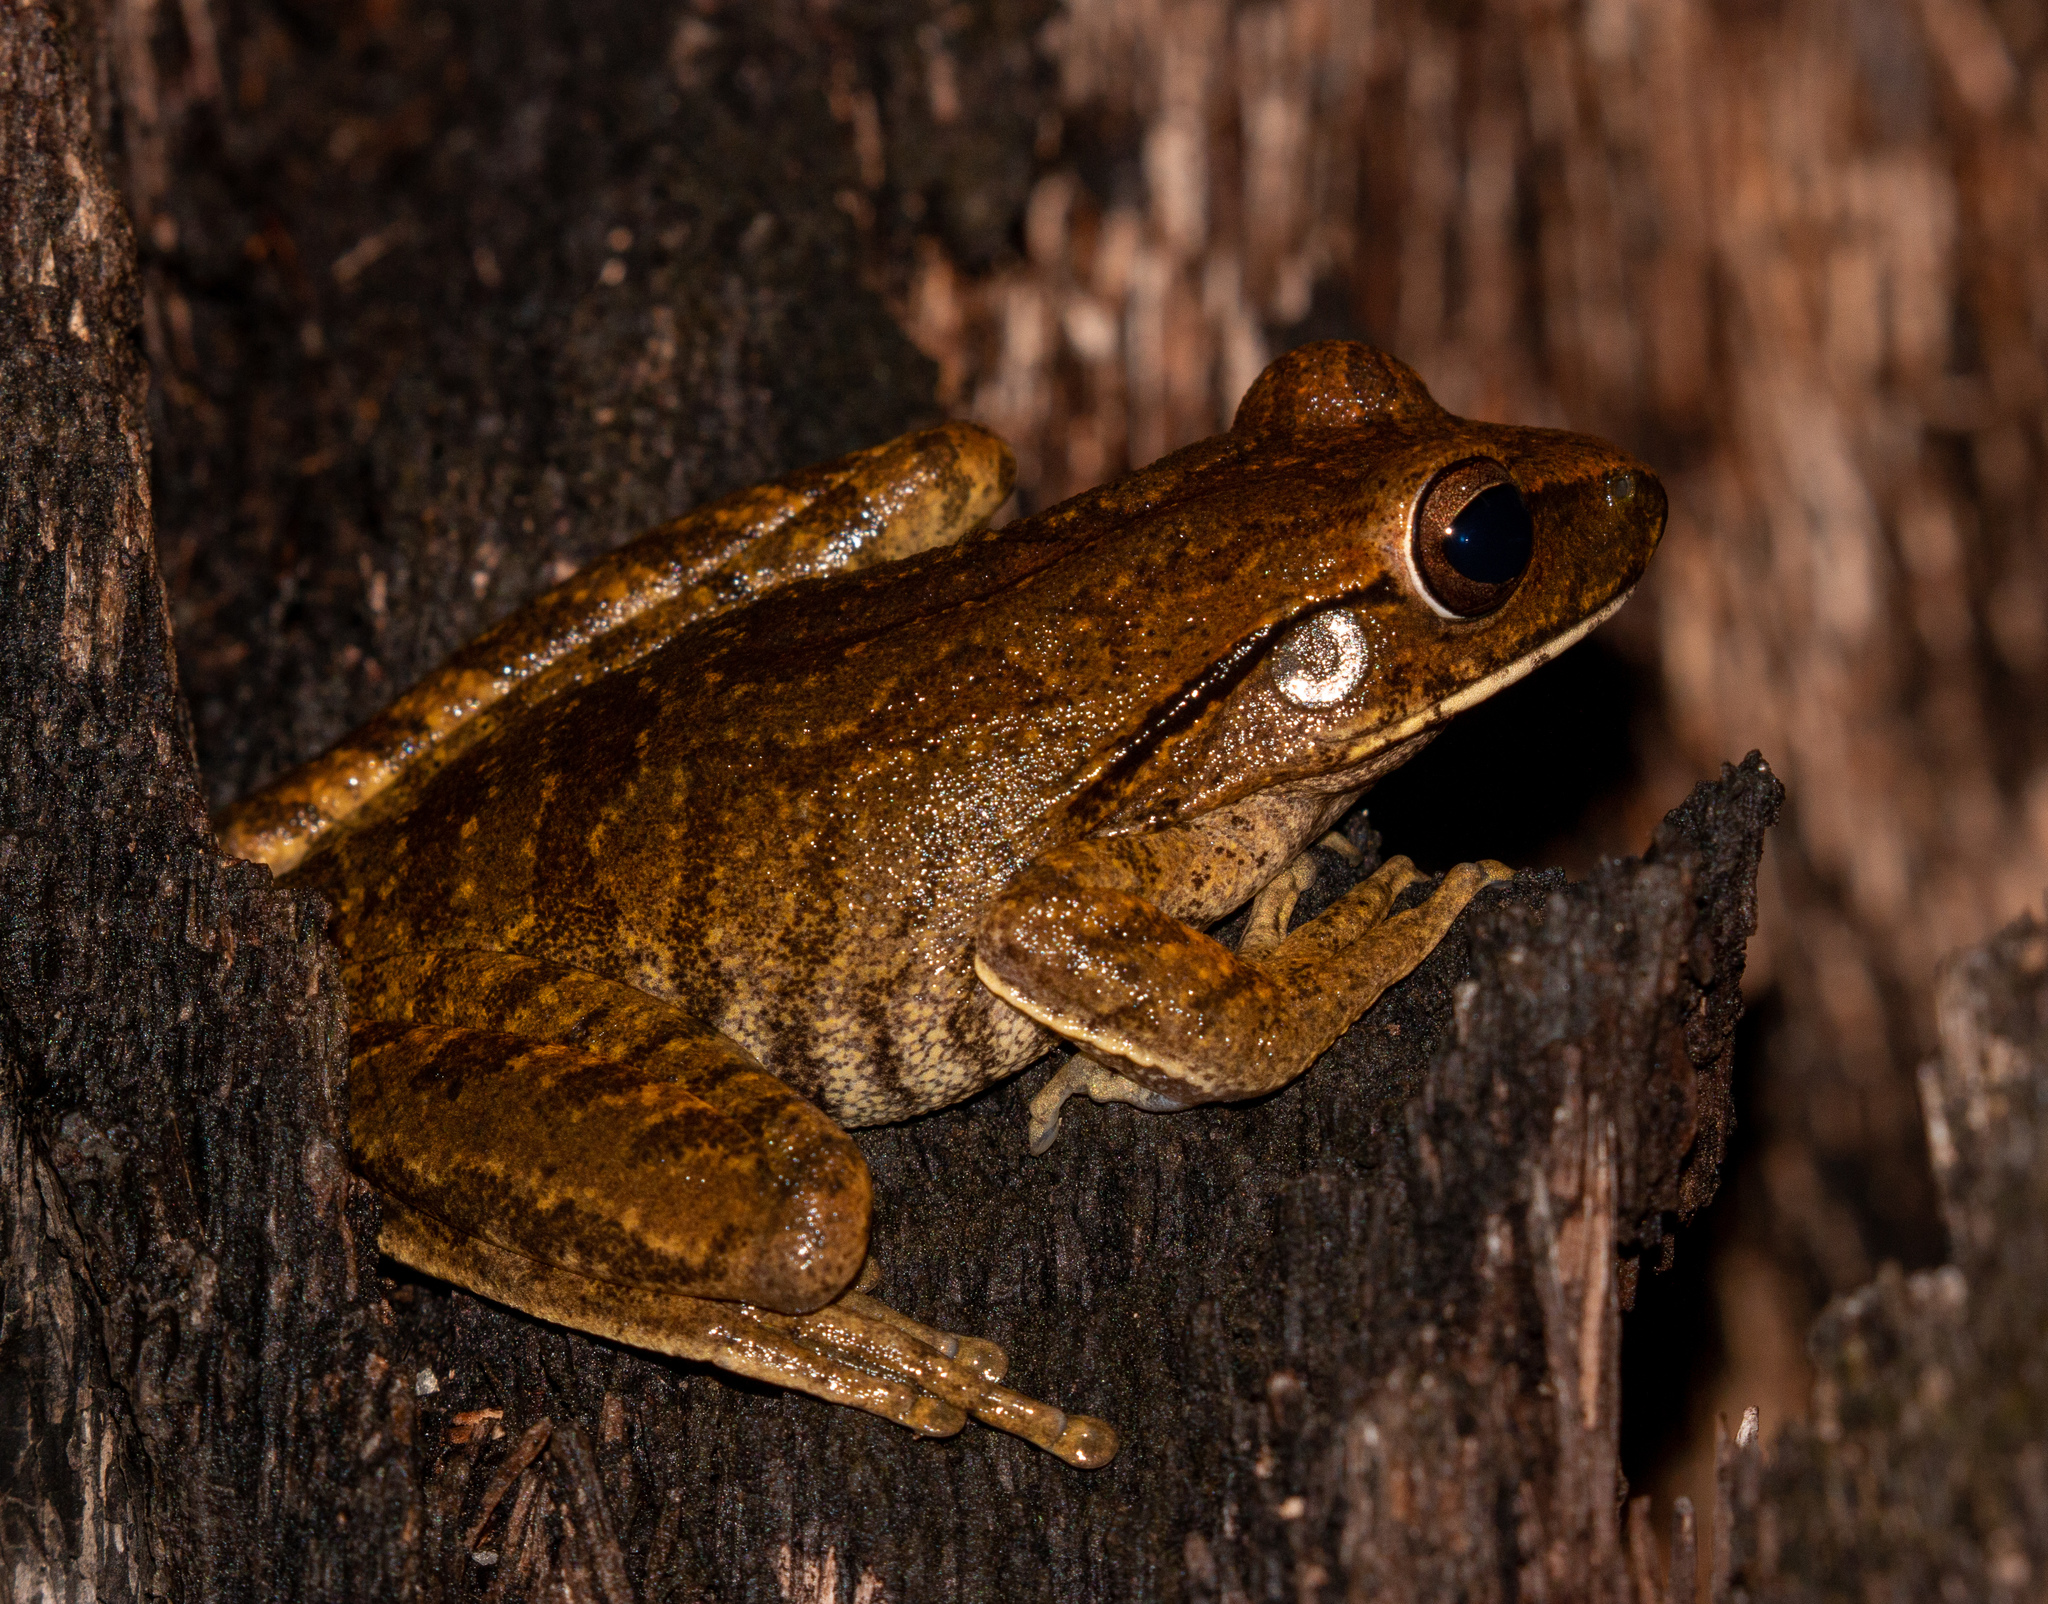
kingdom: Animalia
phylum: Chordata
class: Amphibia
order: Anura
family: Hylidae
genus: Boana
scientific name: Boana raniceps
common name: Chaco treefrog
